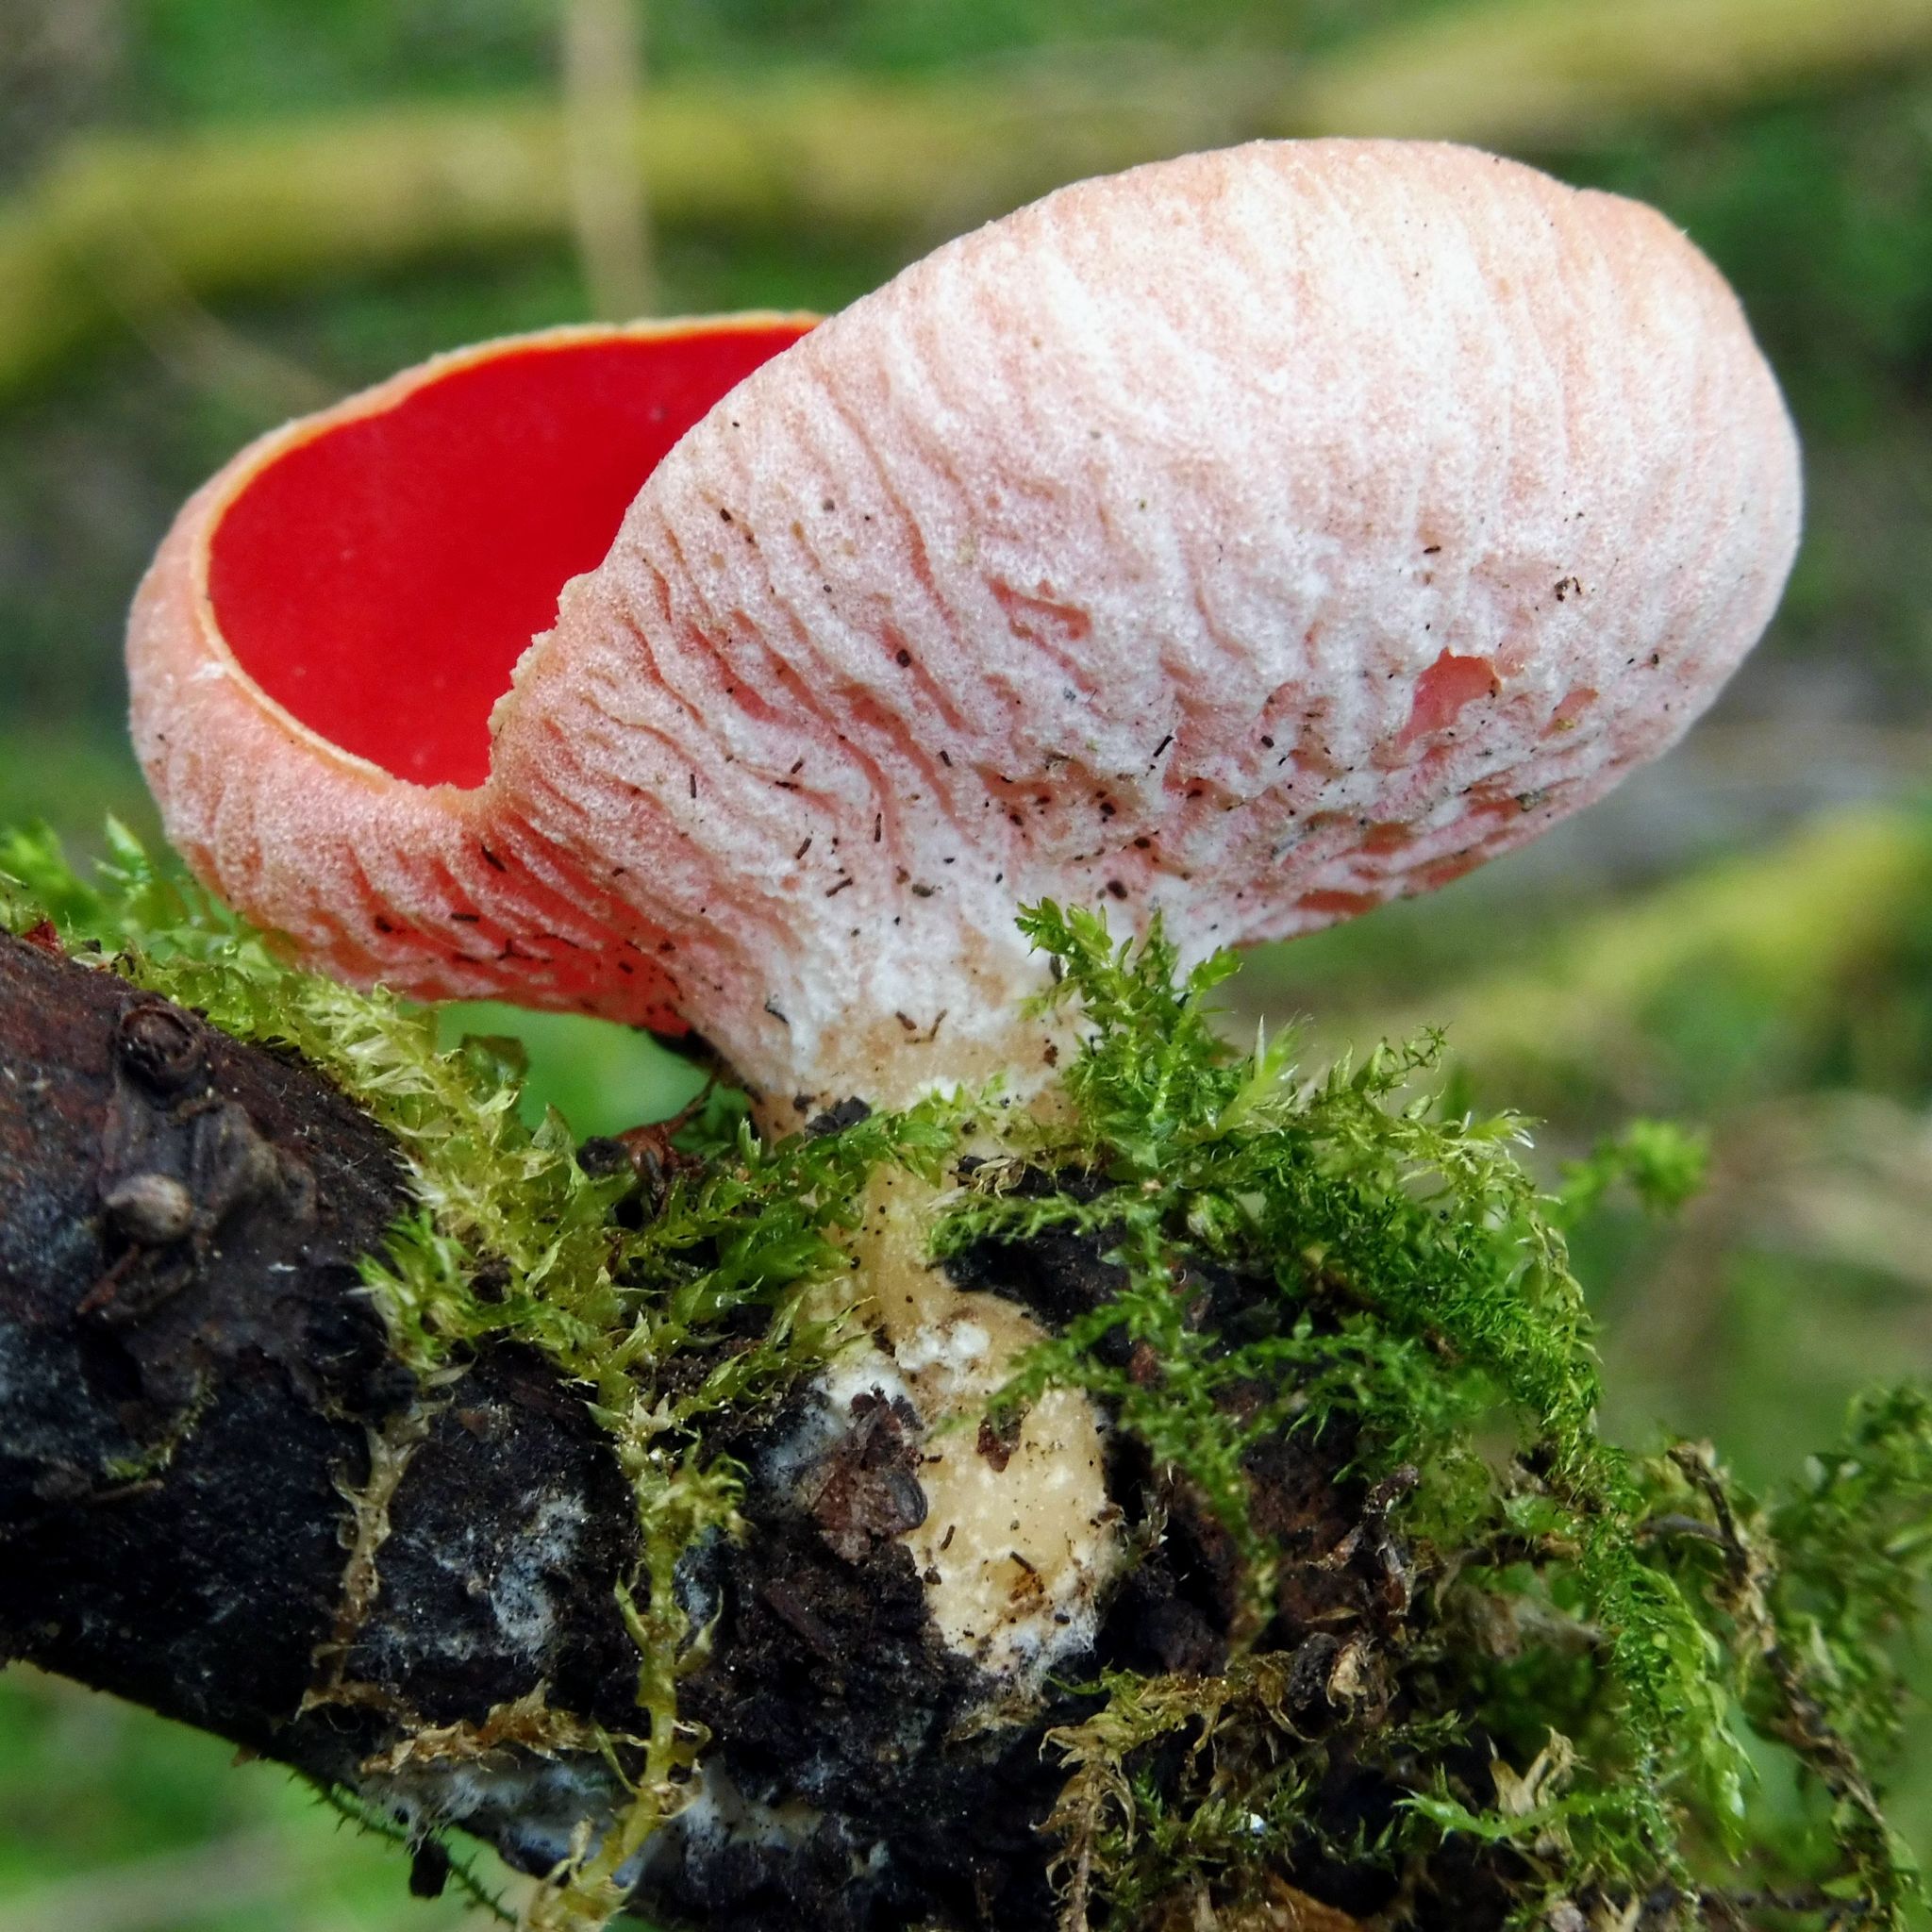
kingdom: Fungi
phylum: Ascomycota
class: Pezizomycetes
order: Pezizales
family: Sarcoscyphaceae
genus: Sarcoscypha
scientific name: Sarcoscypha
